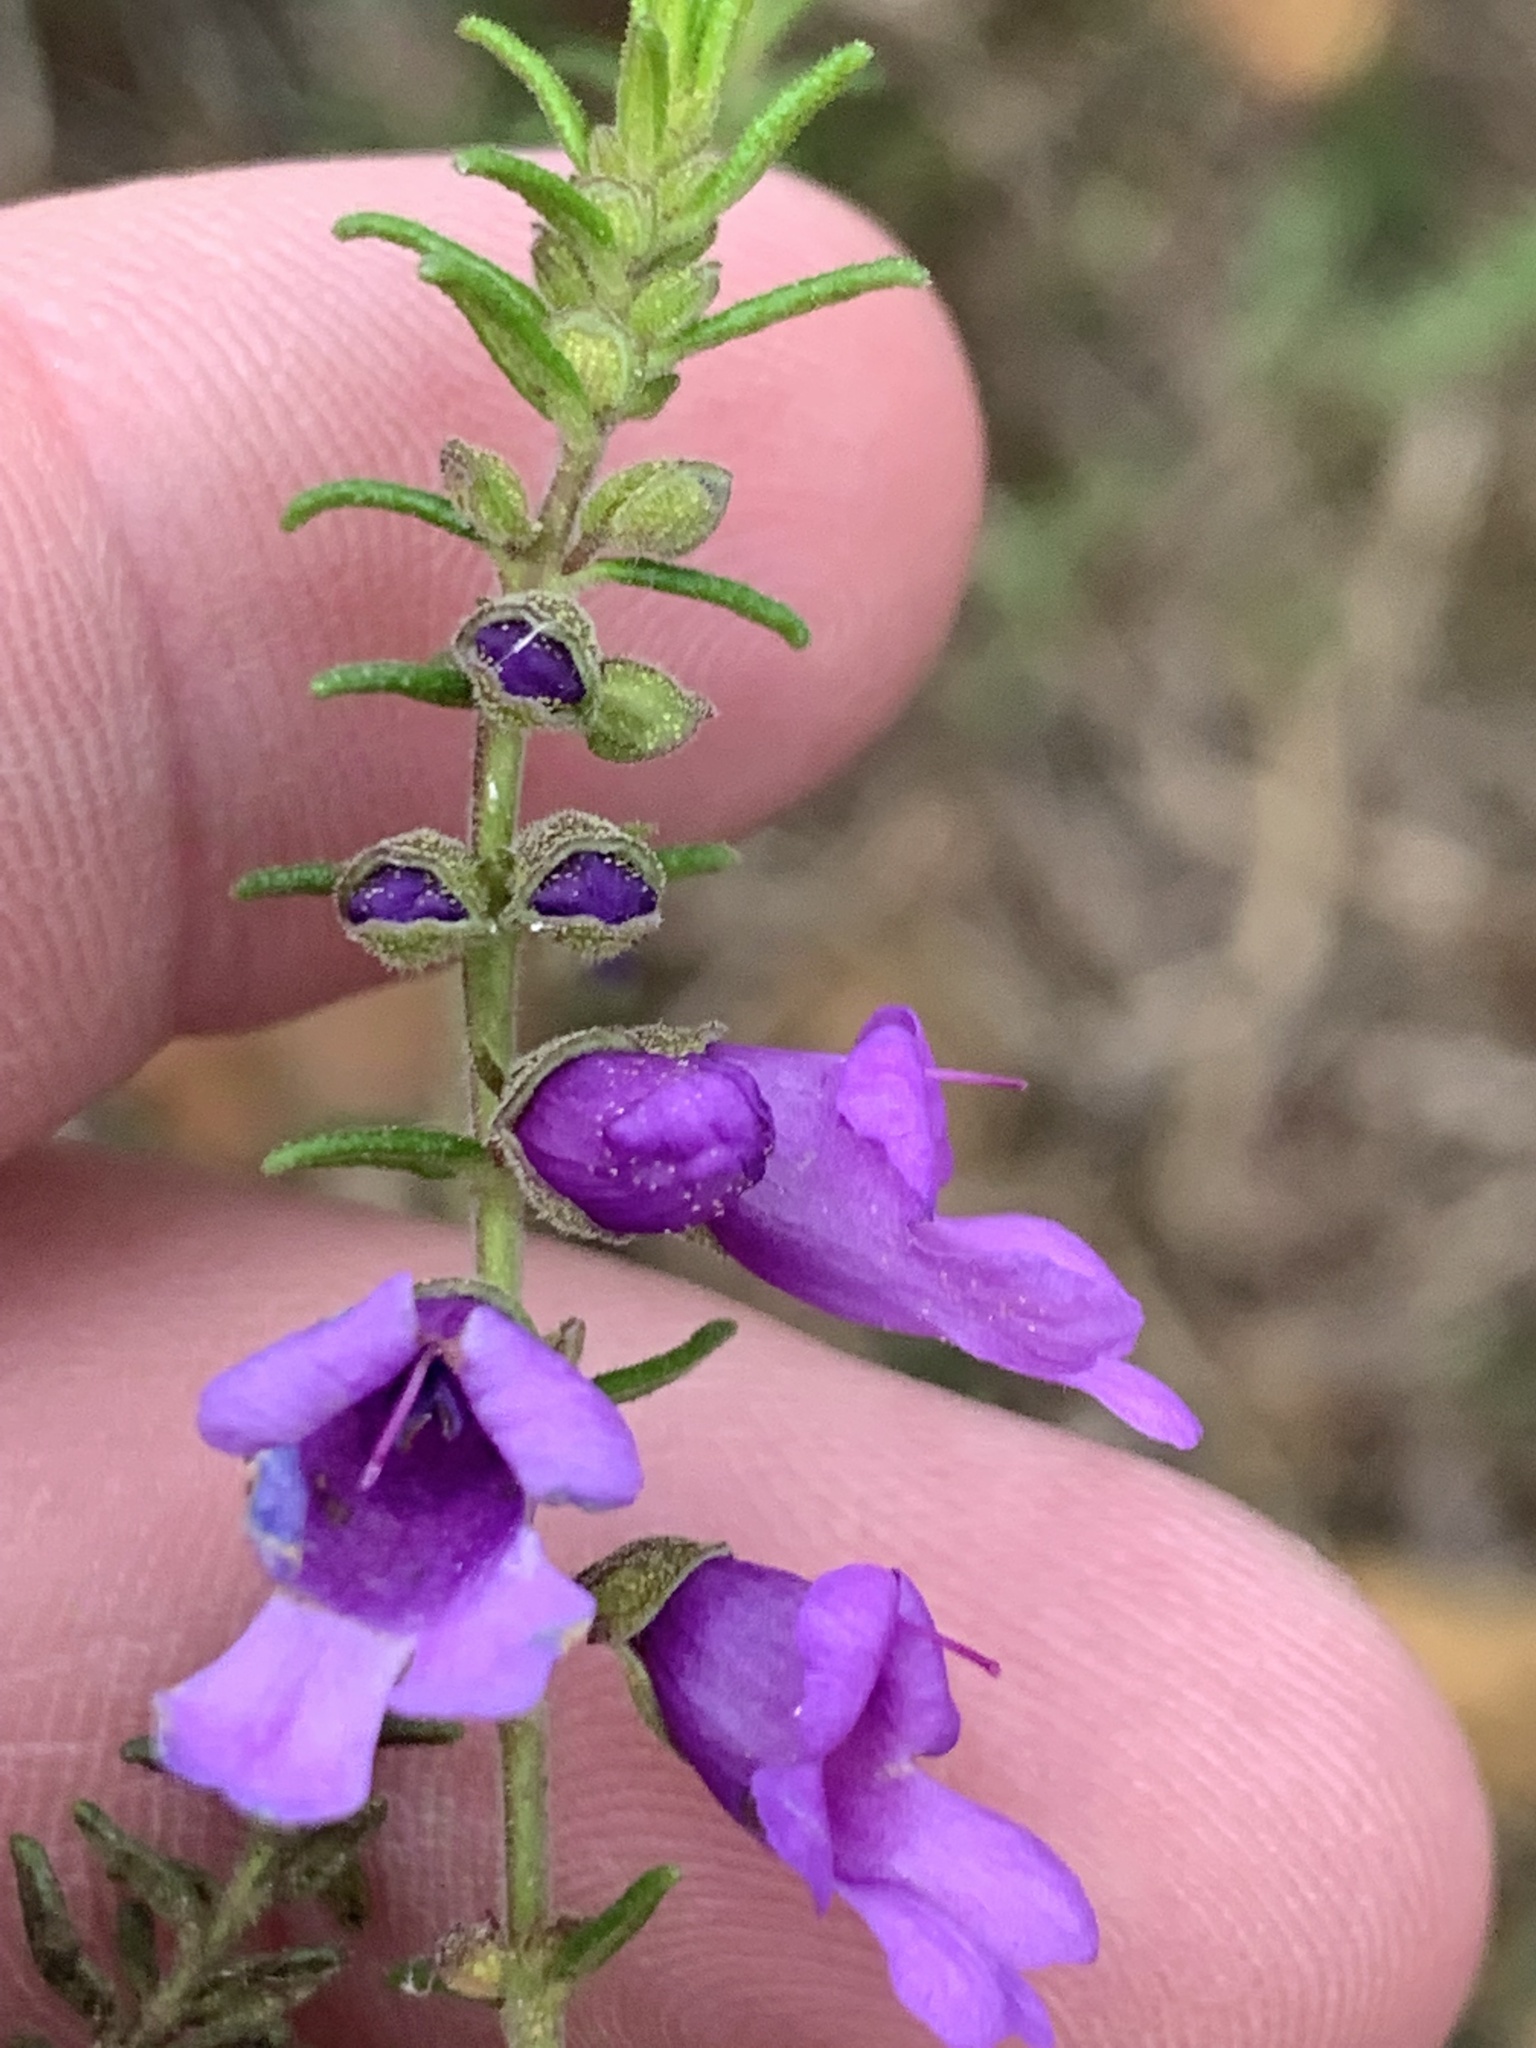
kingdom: Plantae
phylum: Tracheophyta
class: Magnoliopsida
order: Lamiales
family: Lamiaceae
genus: Prostanthera
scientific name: Prostanthera decussata
